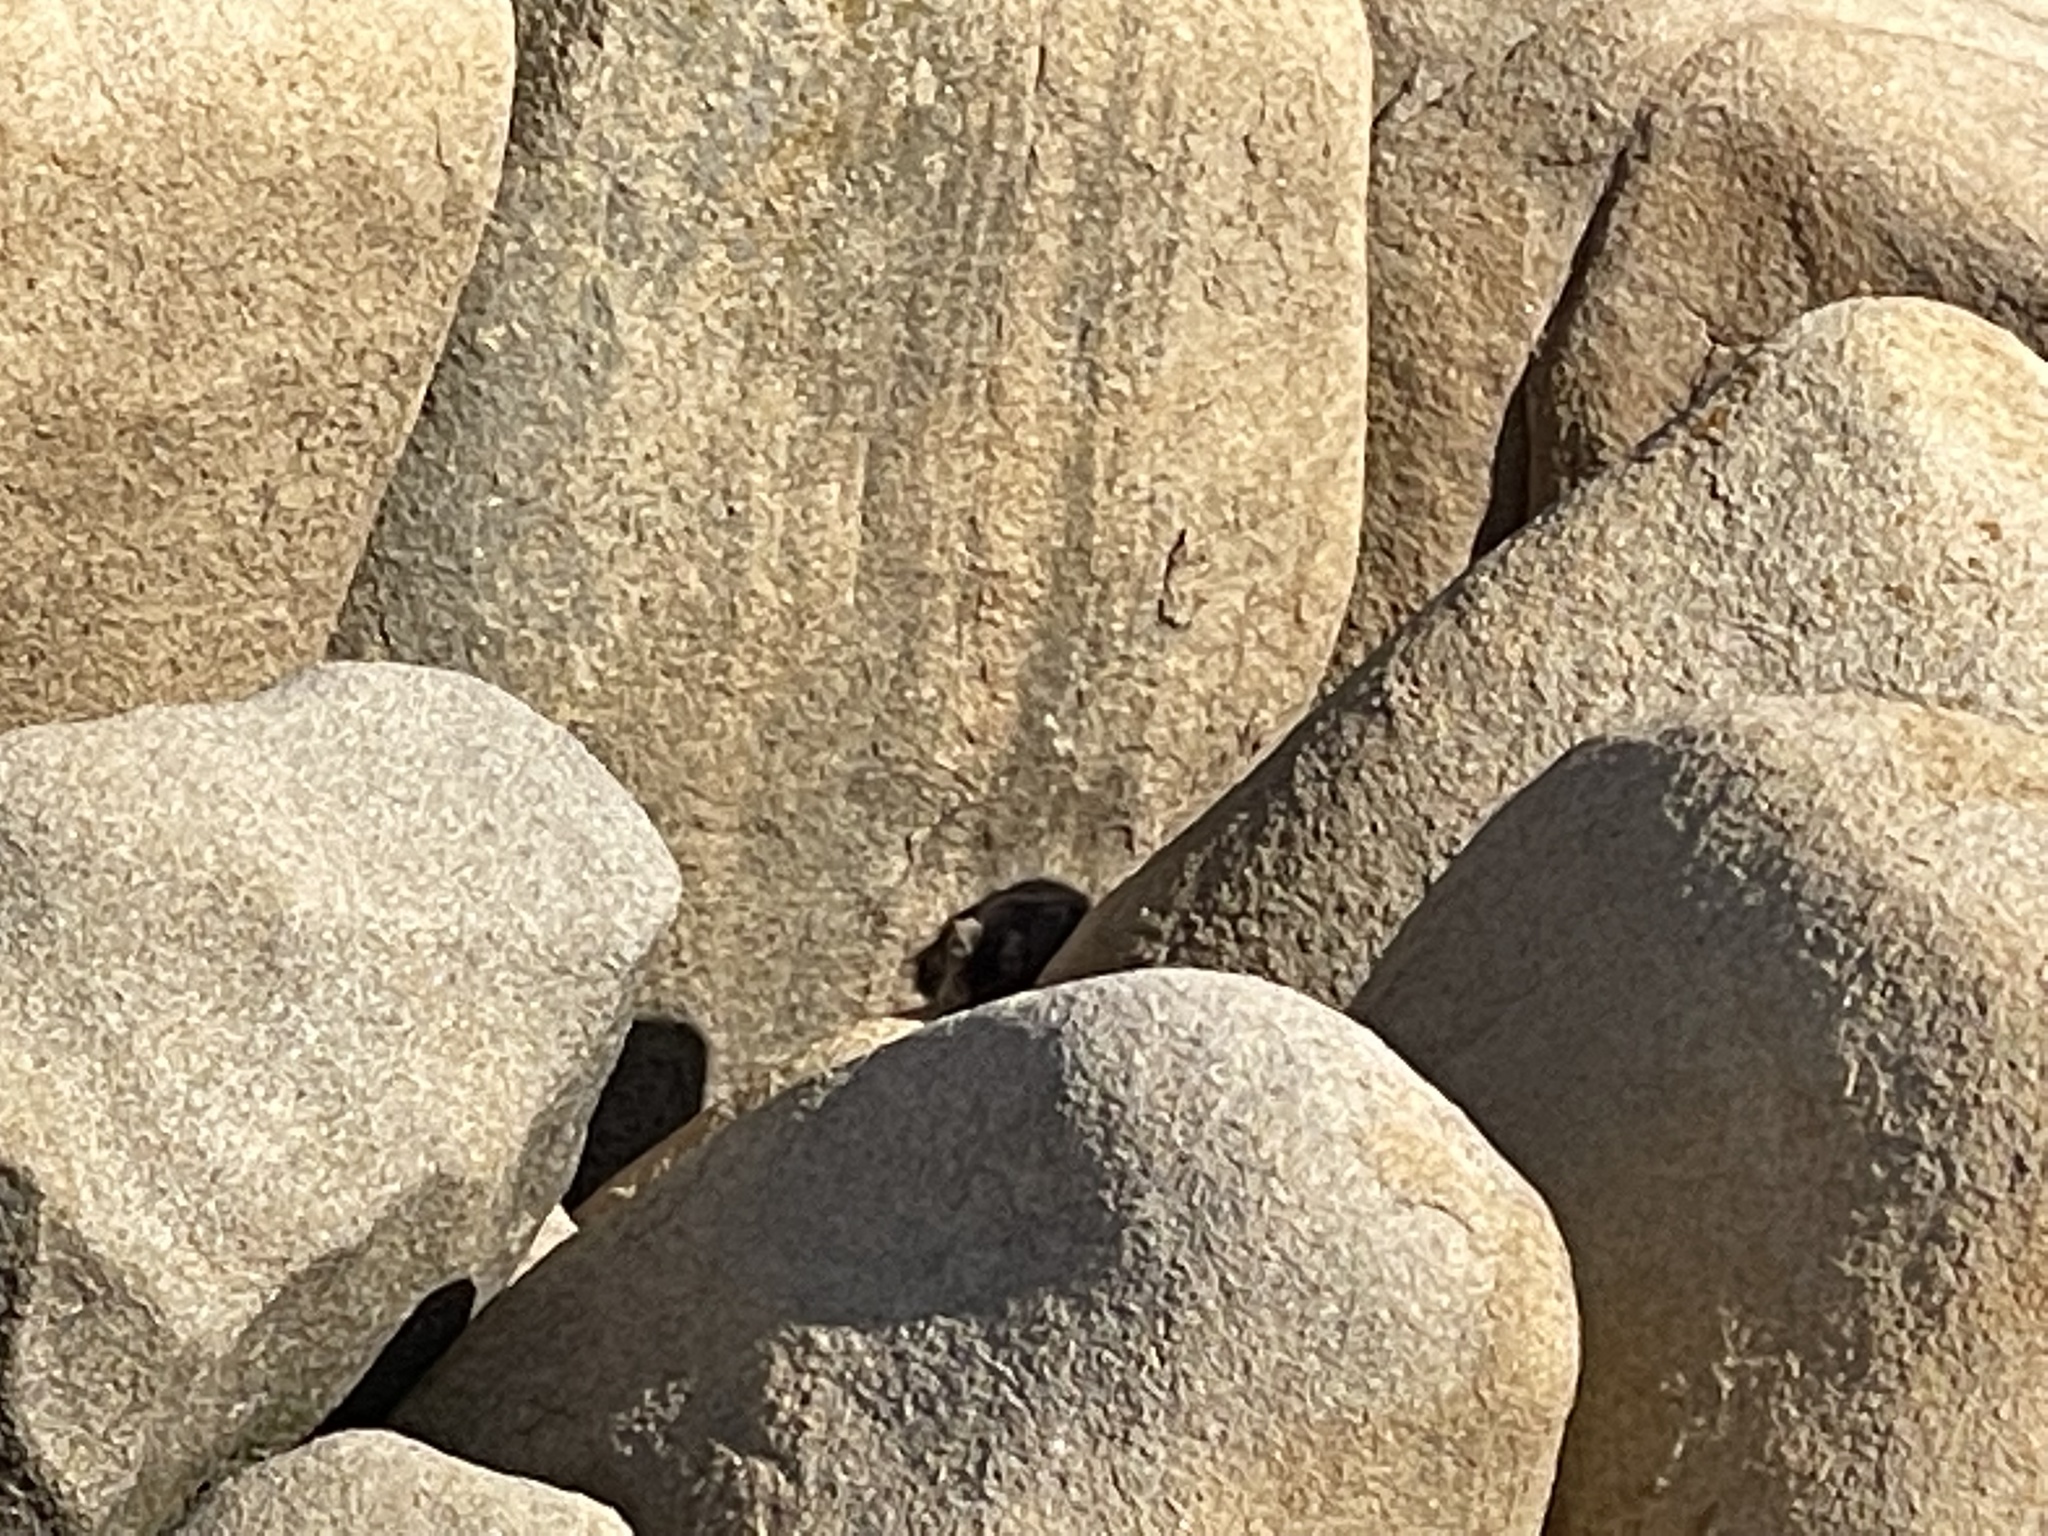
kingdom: Animalia
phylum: Chordata
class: Mammalia
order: Carnivora
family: Felidae
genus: Felis
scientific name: Felis catus
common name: Domestic cat
